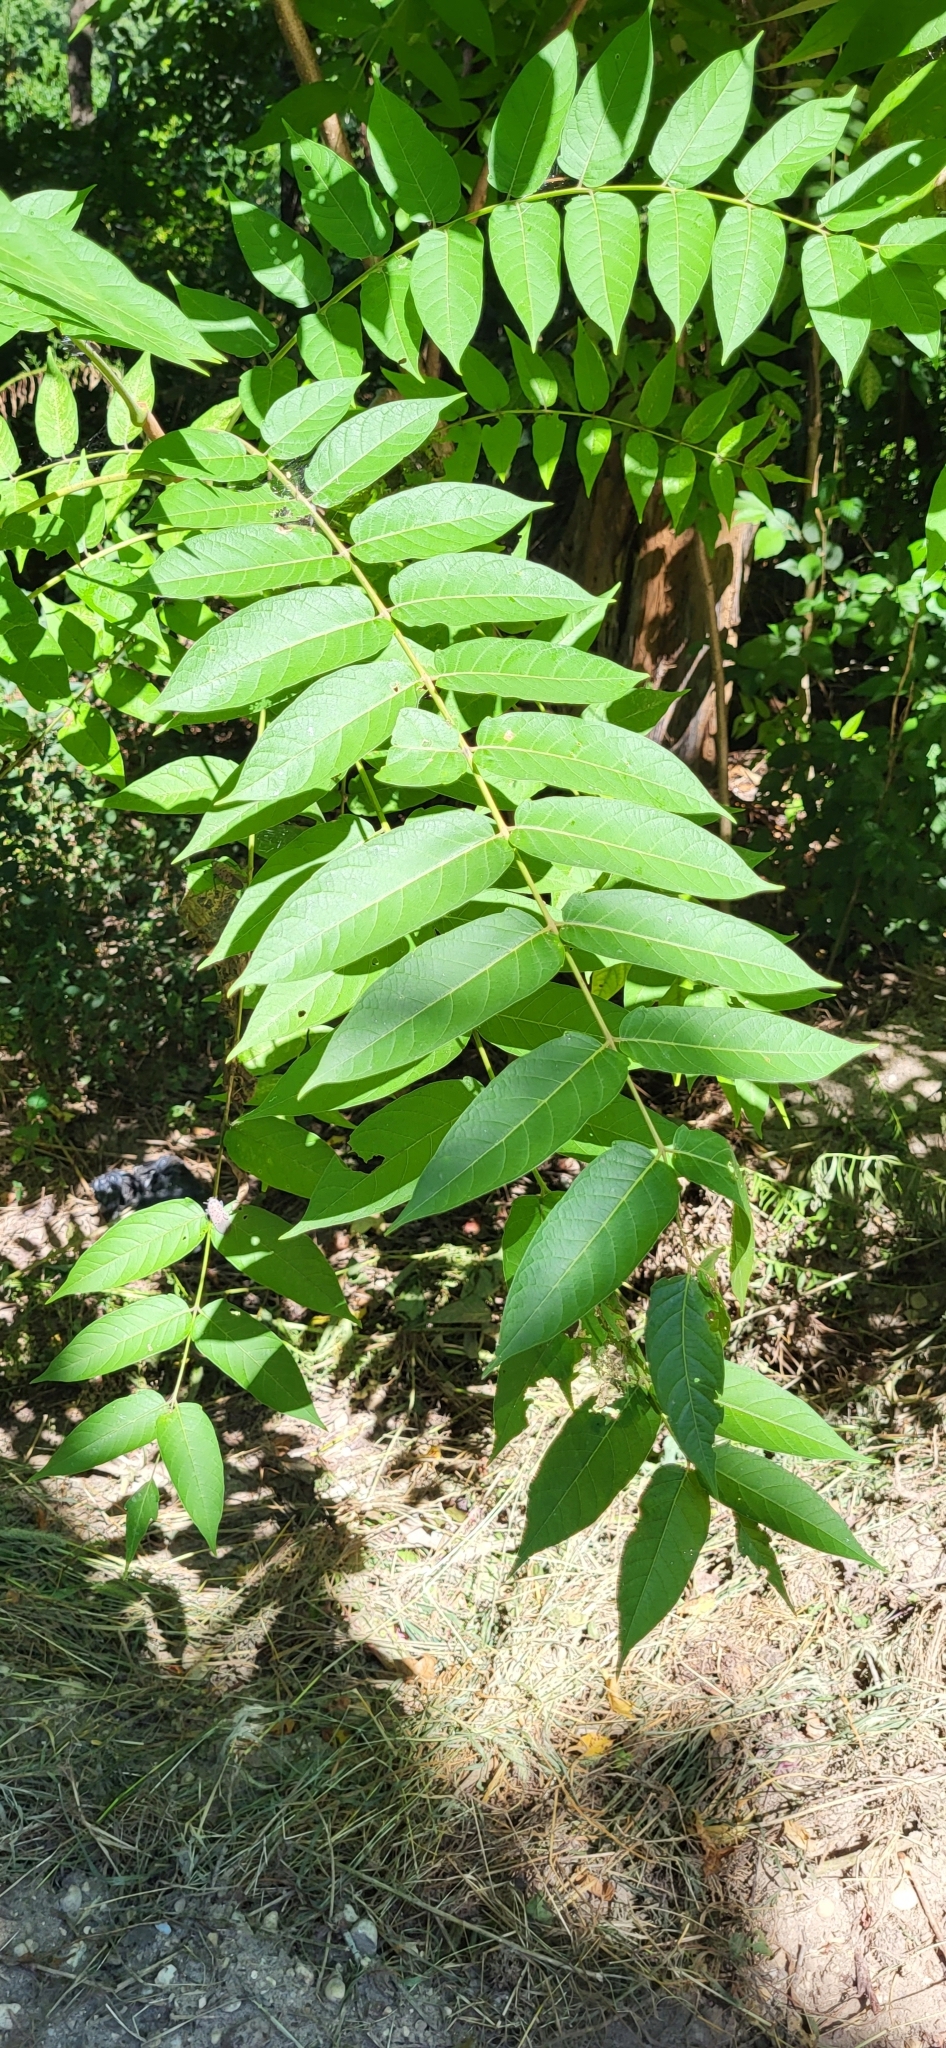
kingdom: Plantae
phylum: Tracheophyta
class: Magnoliopsida
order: Sapindales
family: Simaroubaceae
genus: Ailanthus
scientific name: Ailanthus altissima
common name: Tree-of-heaven
